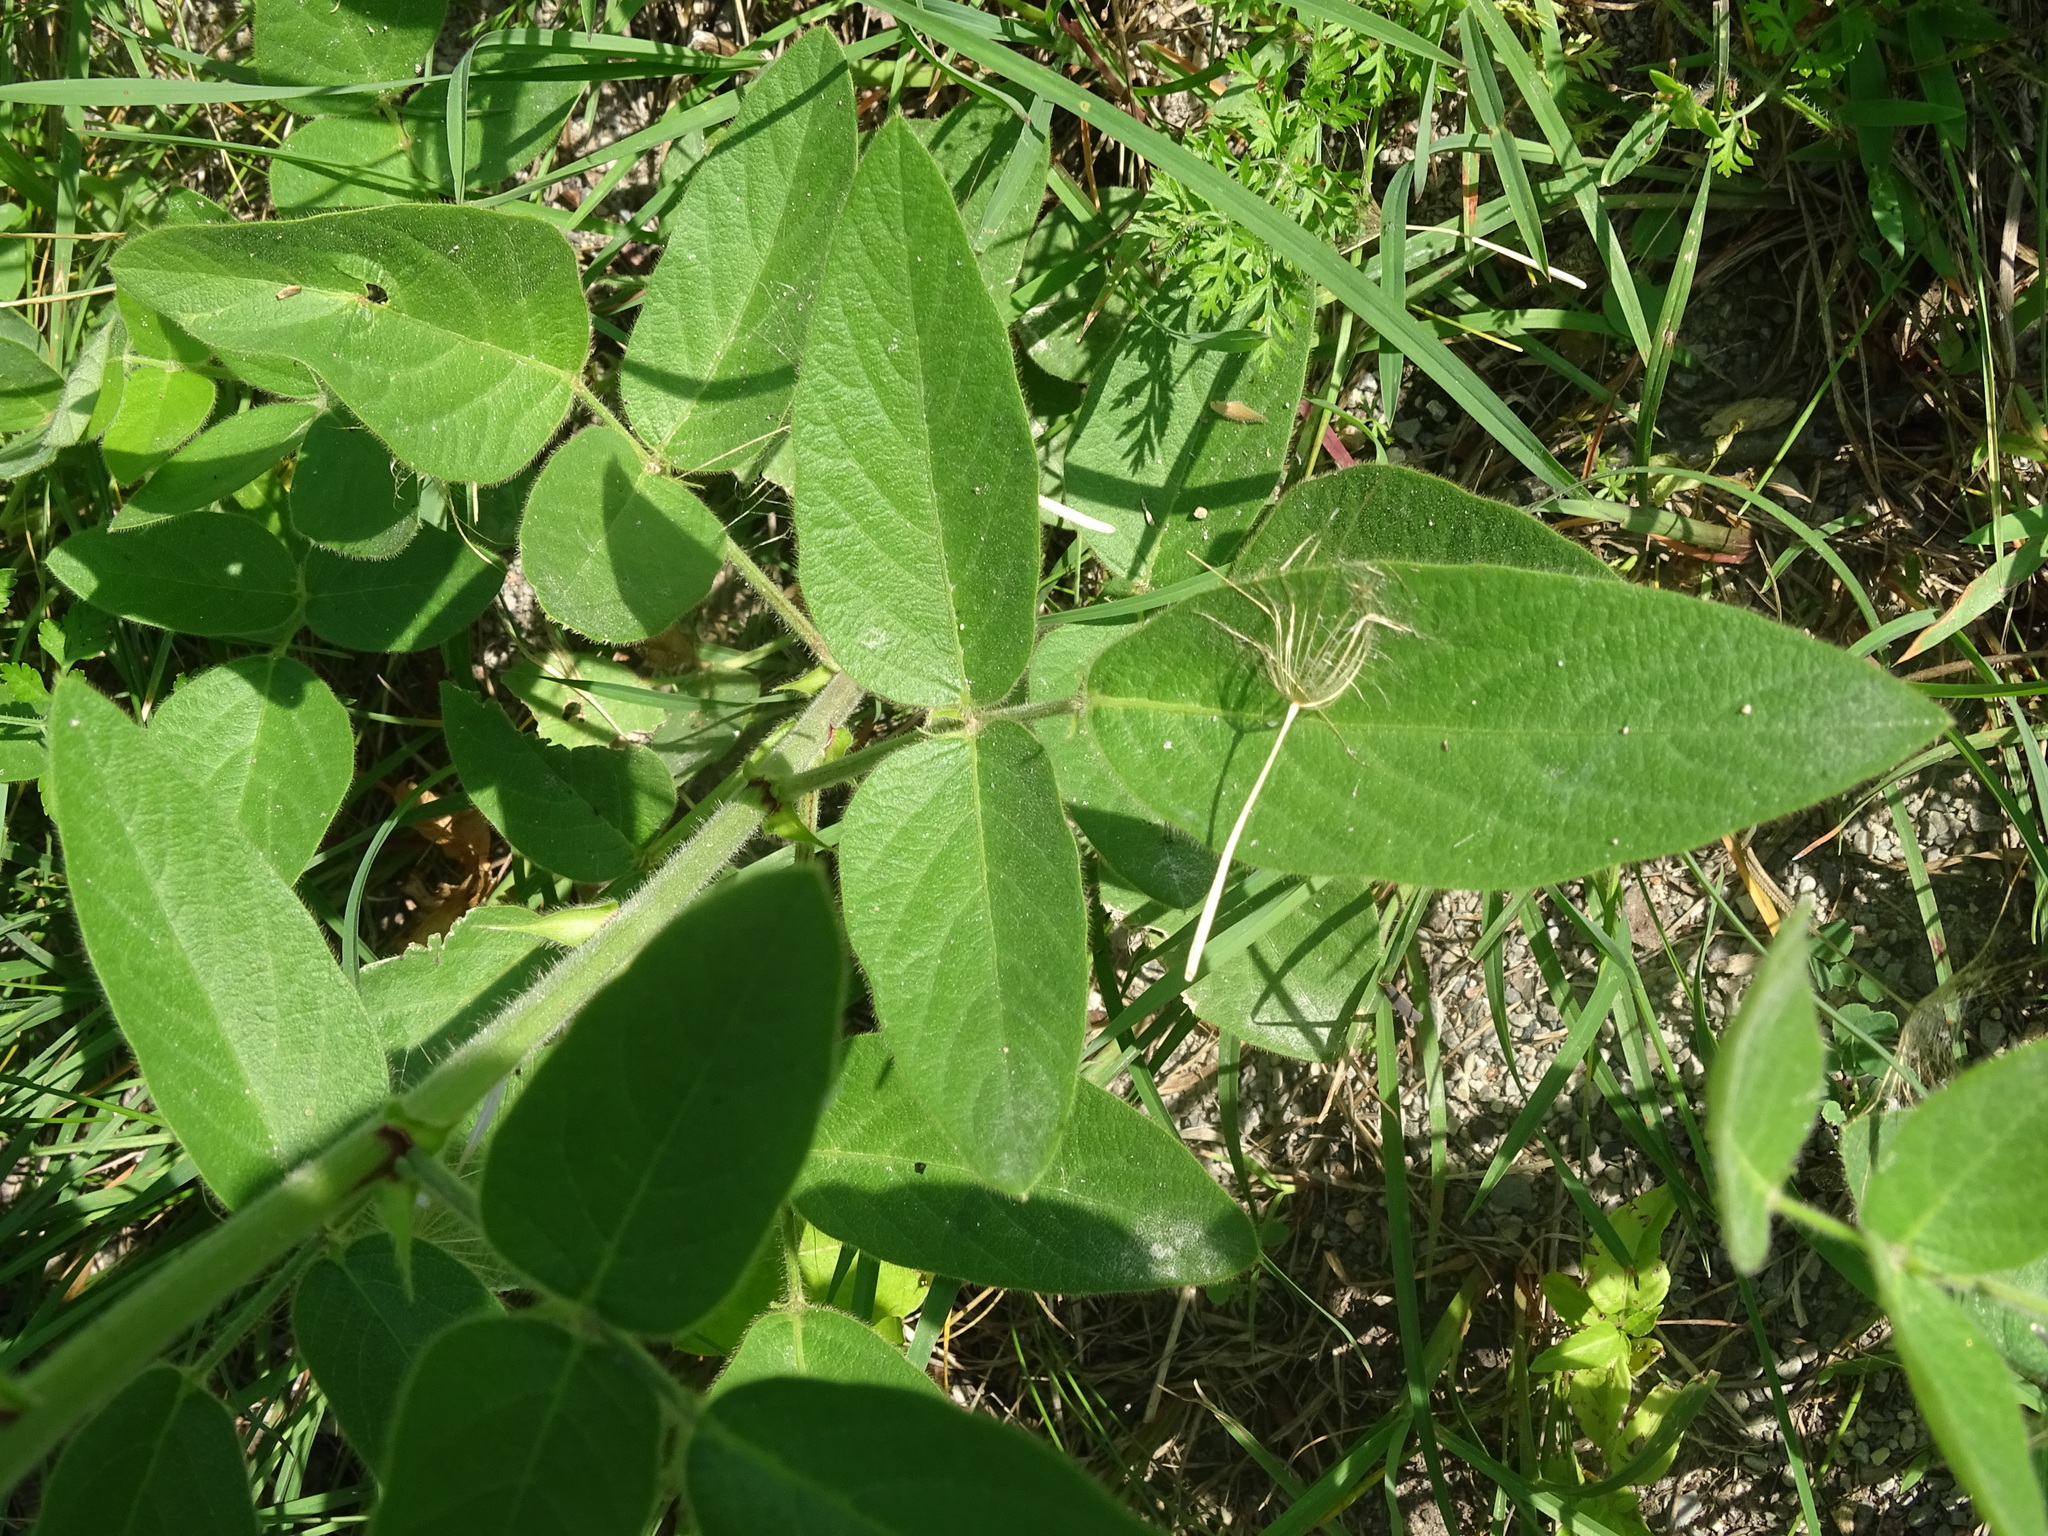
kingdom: Plantae
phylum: Tracheophyta
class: Magnoliopsida
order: Fabales
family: Fabaceae
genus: Desmodium
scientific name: Desmodium illinoense
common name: Illinois tick-clover
